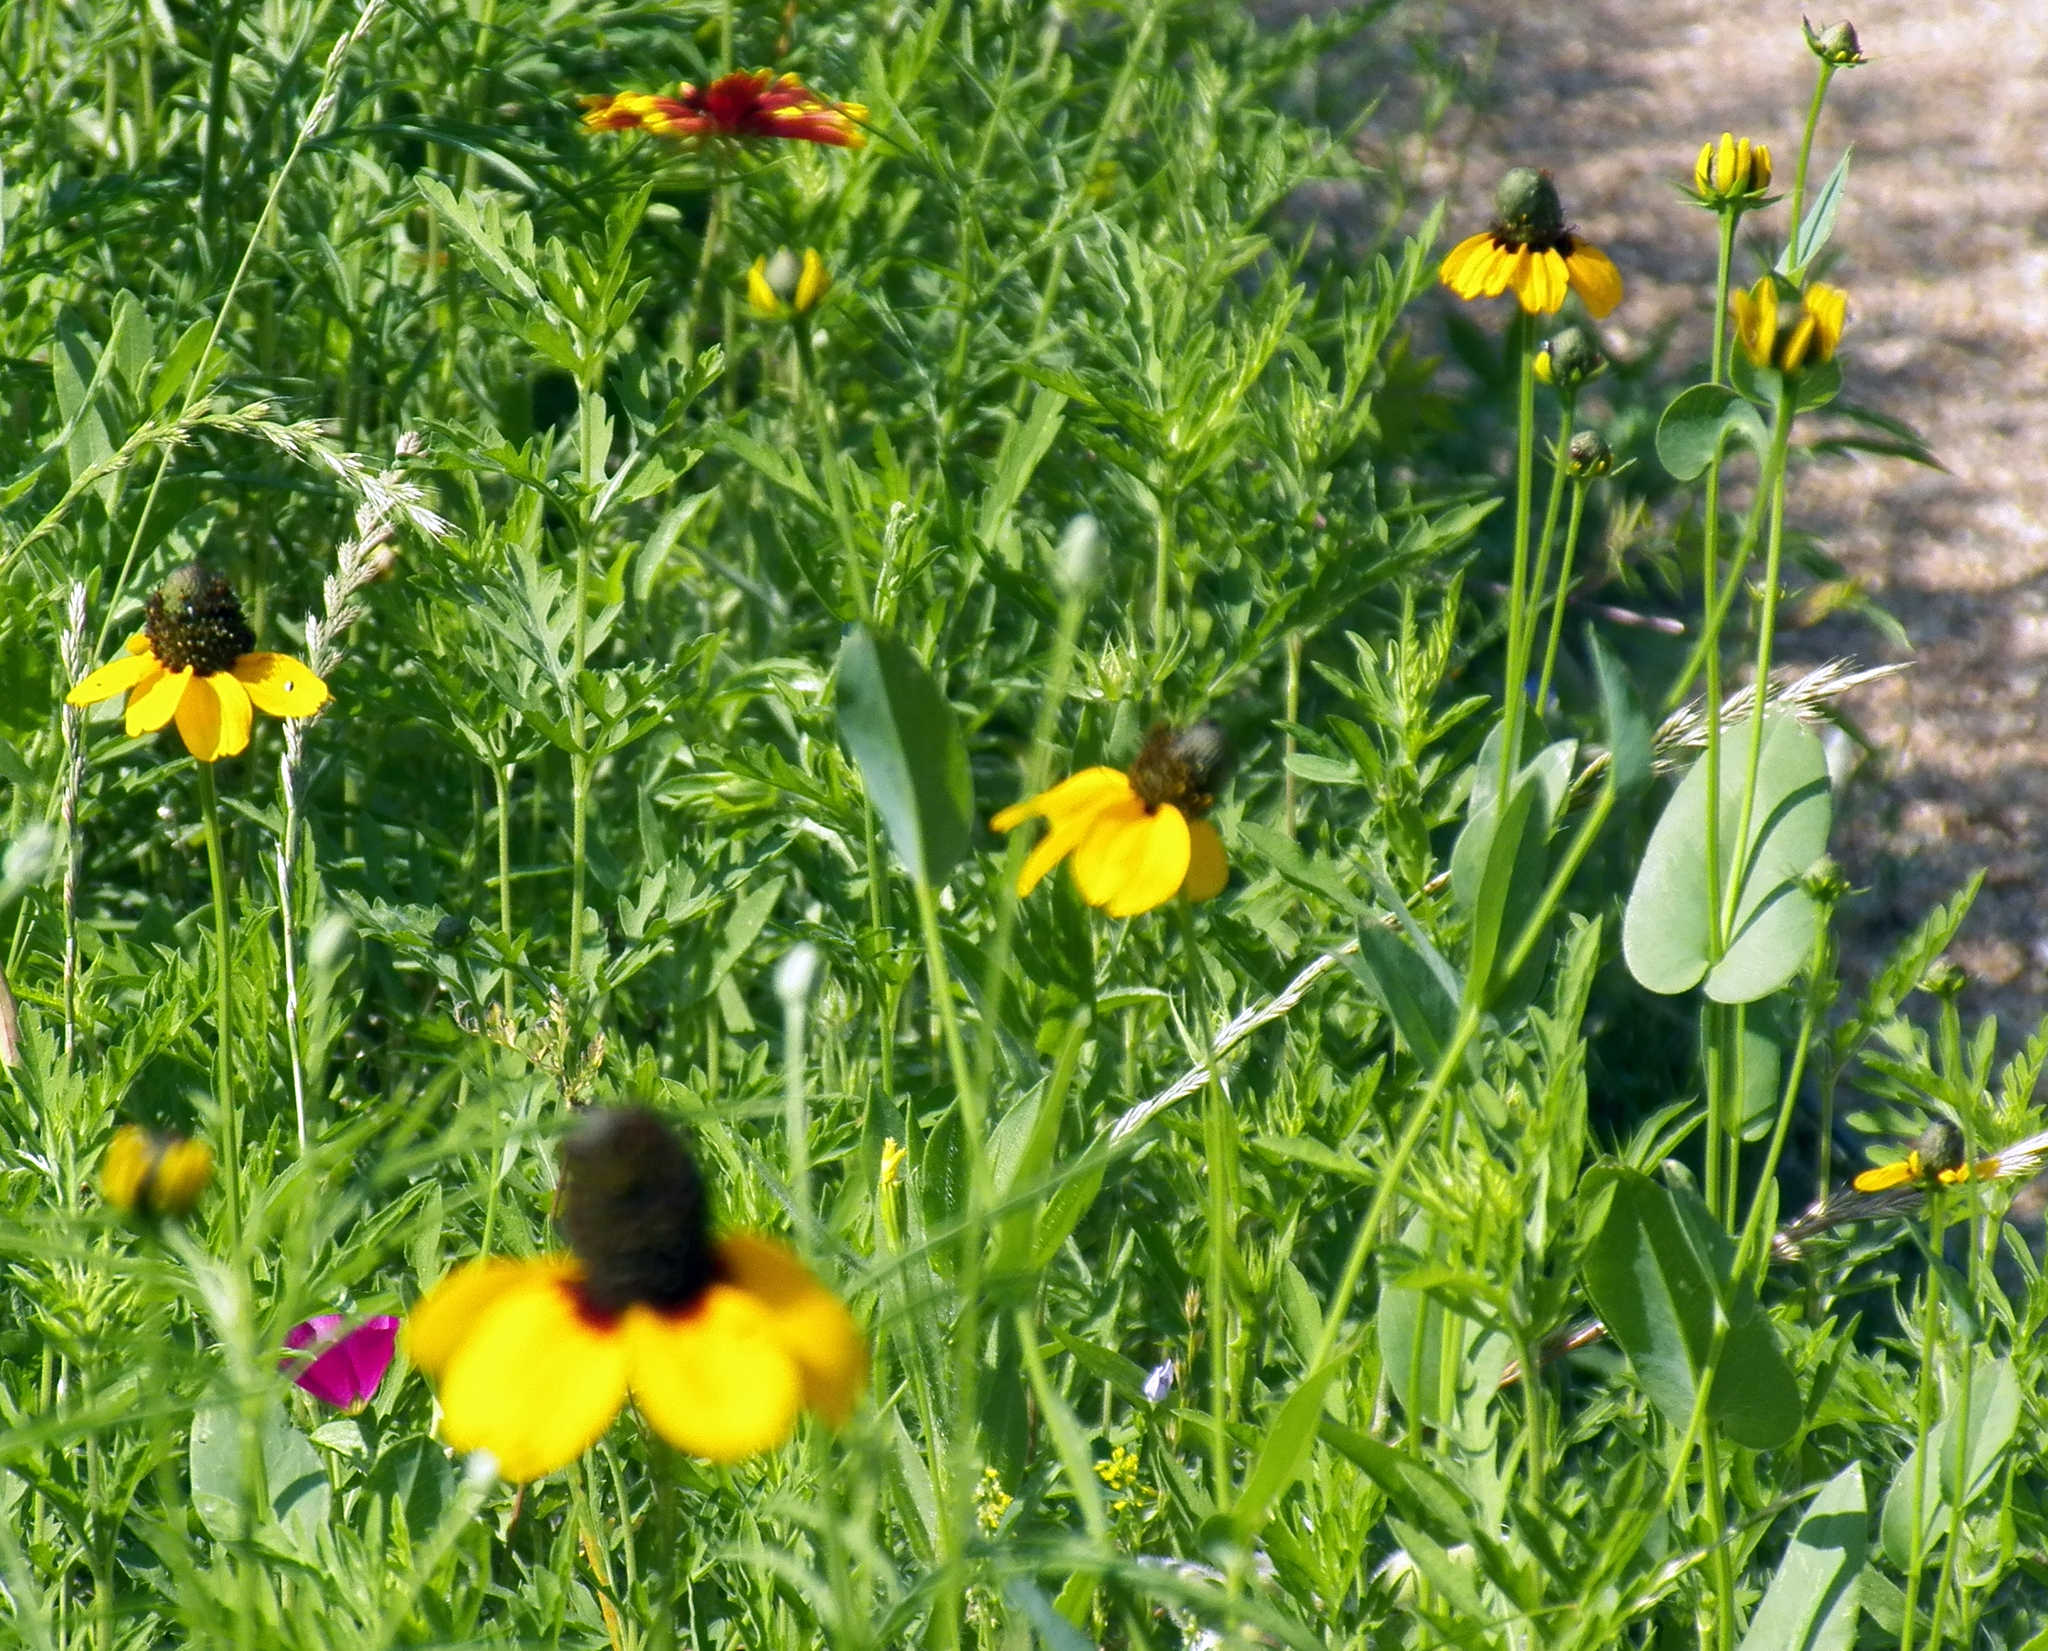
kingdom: Plantae
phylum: Tracheophyta
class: Magnoliopsida
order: Asterales
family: Asteraceae
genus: Rudbeckia
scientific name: Rudbeckia amplexicaulis
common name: Clasping-leaf coneflower
